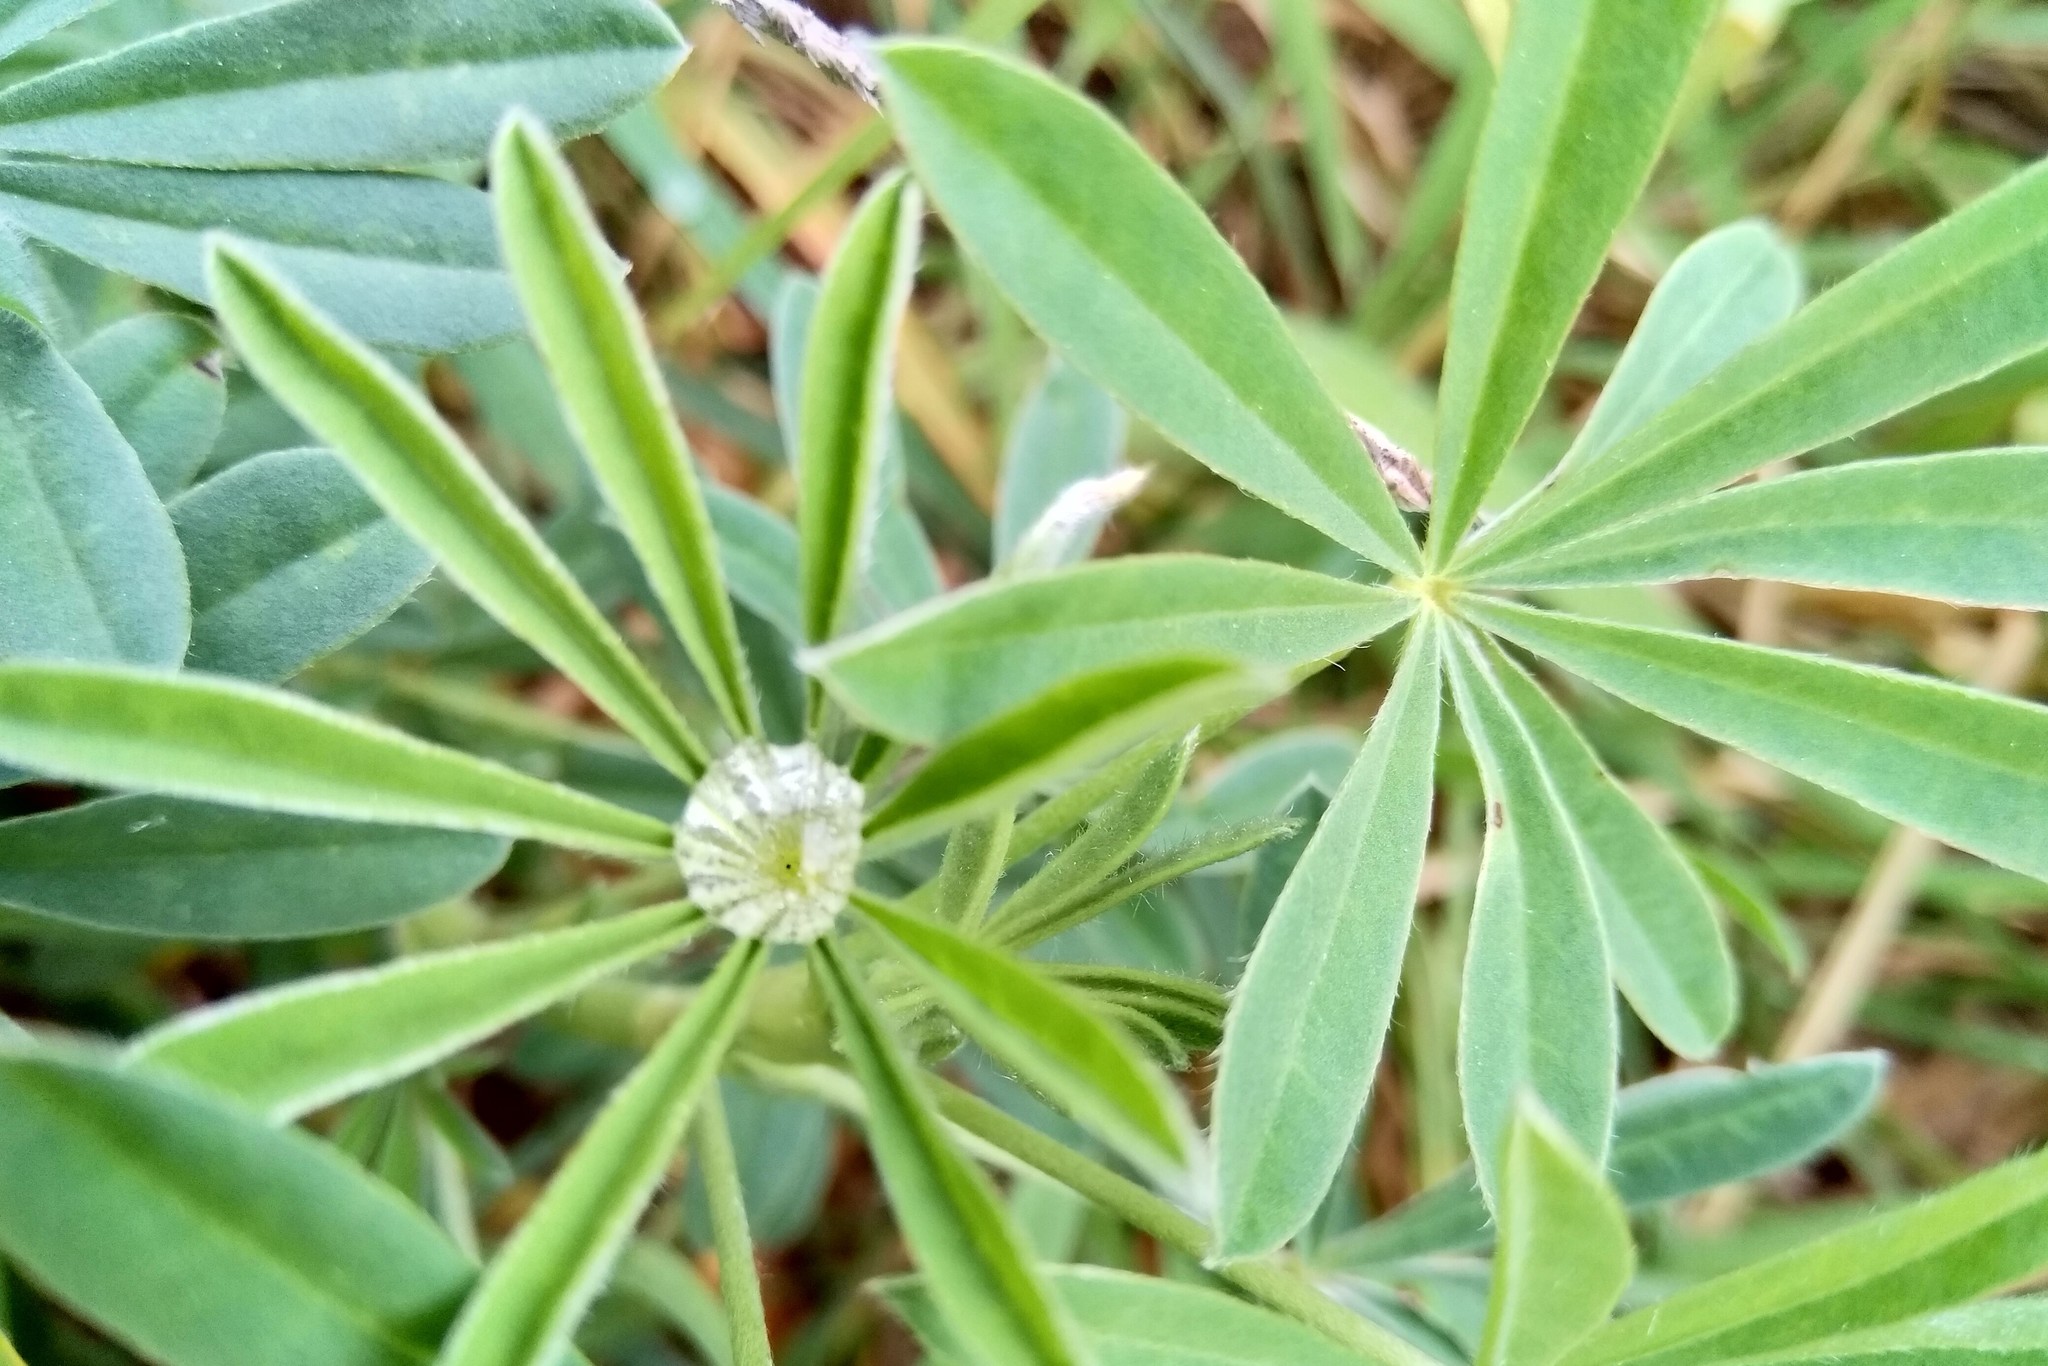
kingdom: Plantae
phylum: Tracheophyta
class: Magnoliopsida
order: Fabales
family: Fabaceae
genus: Lupinus
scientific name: Lupinus arboreus
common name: Yellow bush lupine
